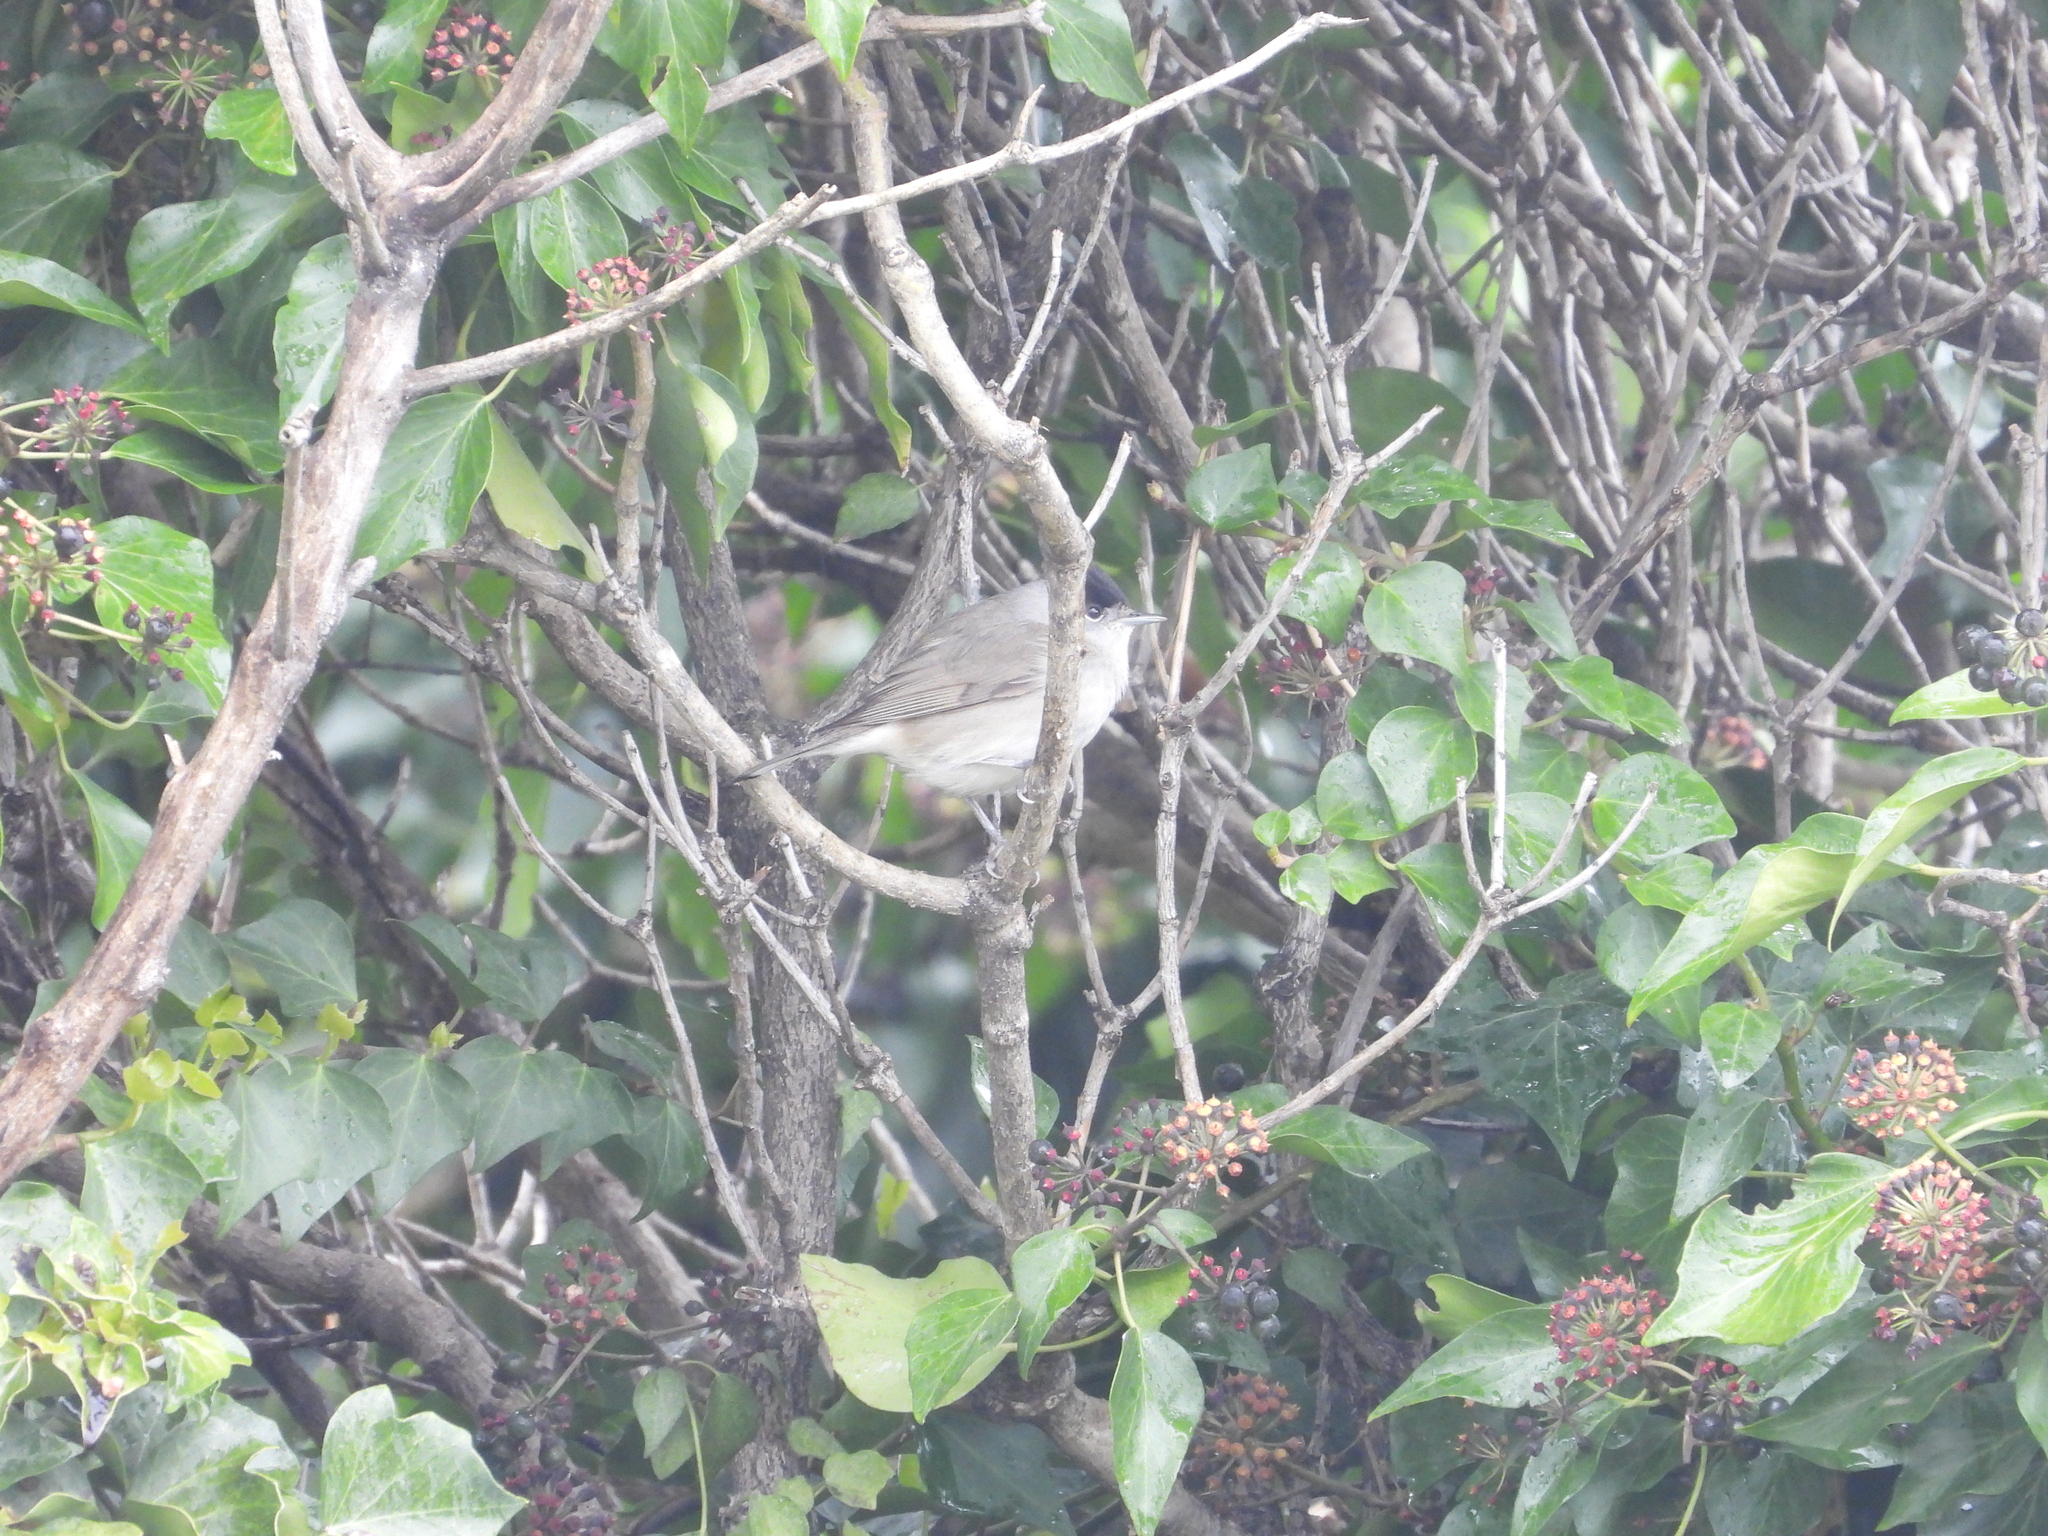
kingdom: Animalia
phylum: Chordata
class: Aves
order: Passeriformes
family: Sylviidae
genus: Sylvia
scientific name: Sylvia atricapilla
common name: Eurasian blackcap
